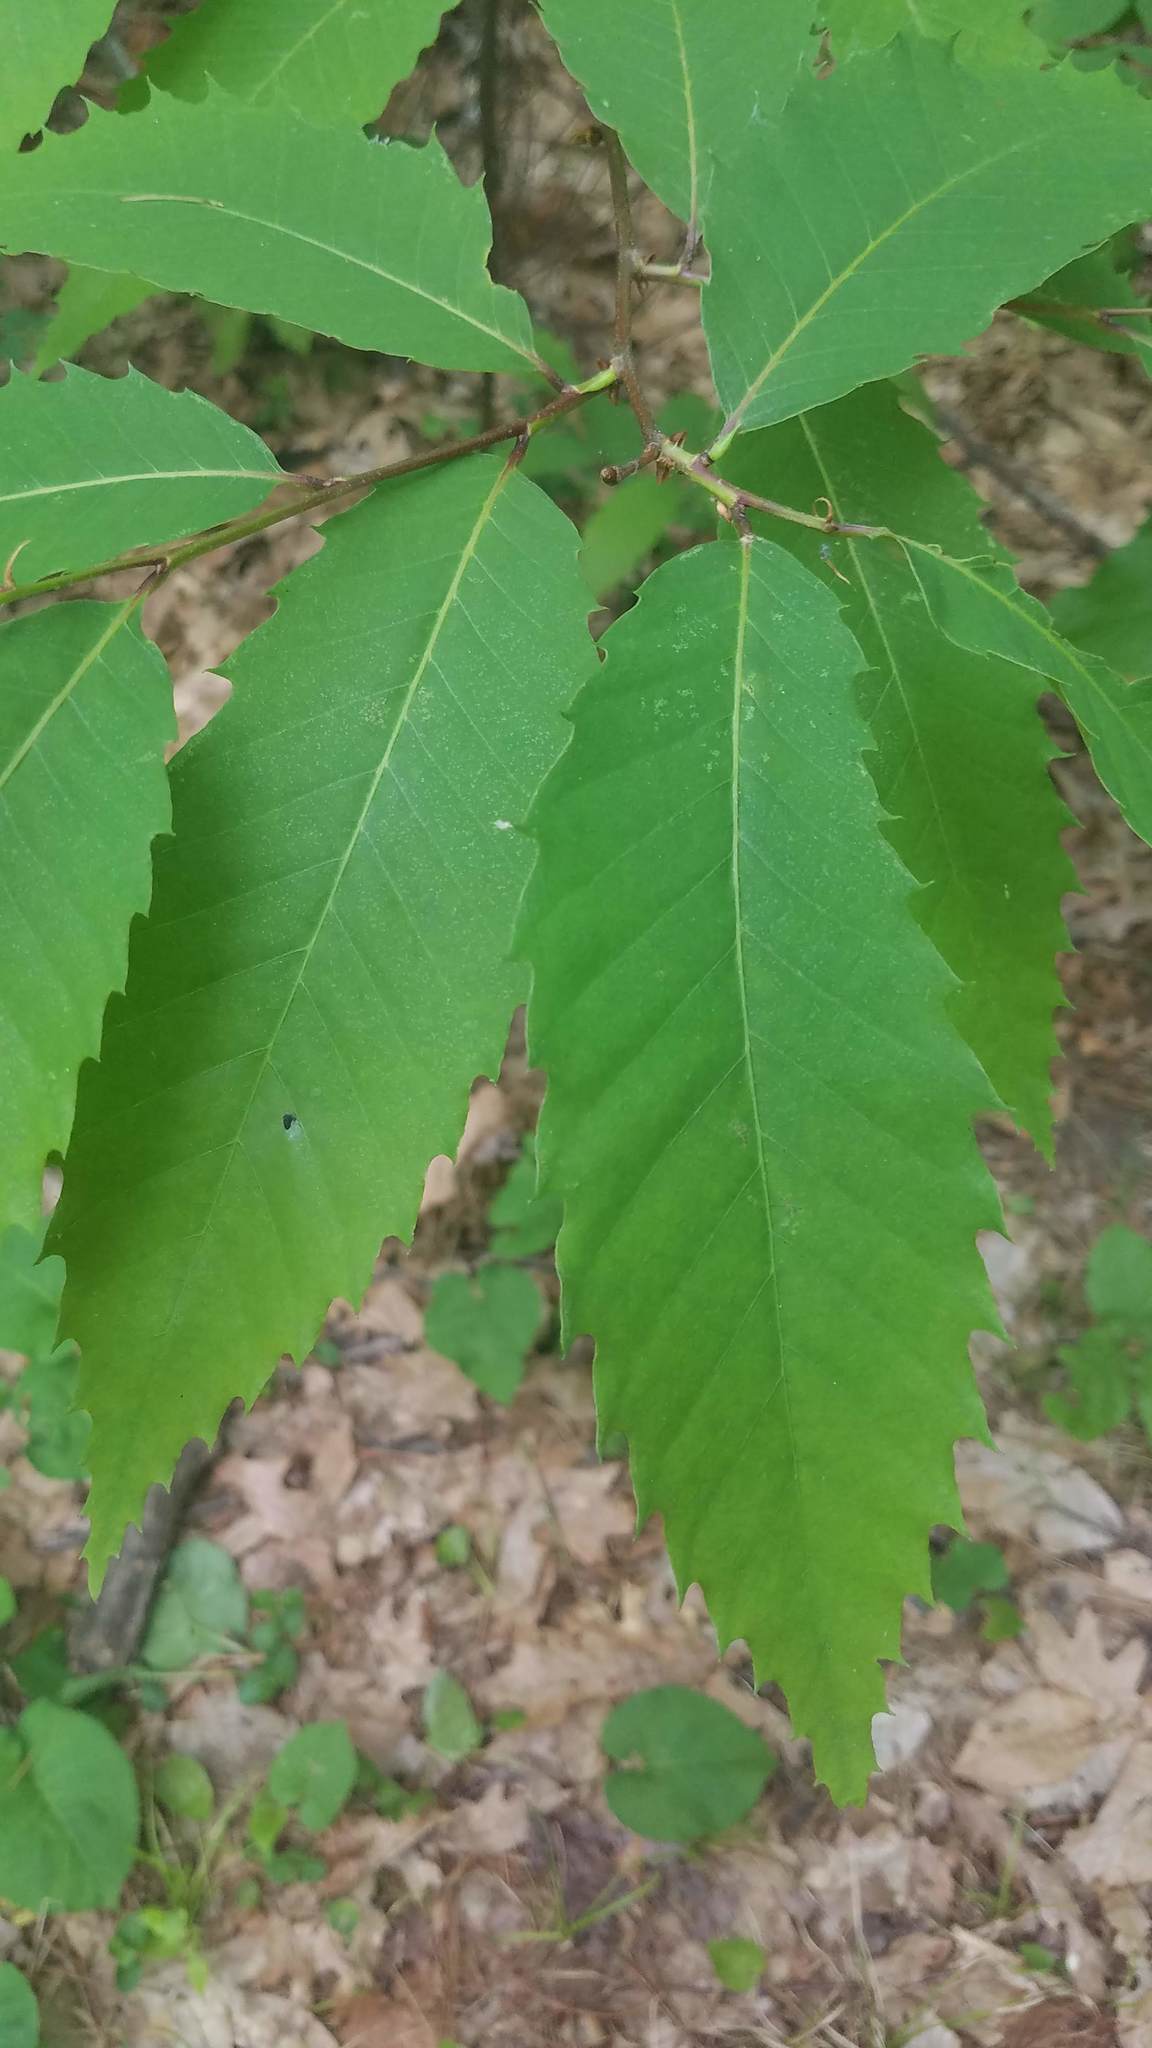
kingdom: Plantae
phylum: Tracheophyta
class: Magnoliopsida
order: Fagales
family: Fagaceae
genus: Castanea
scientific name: Castanea dentata
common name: American chestnut
